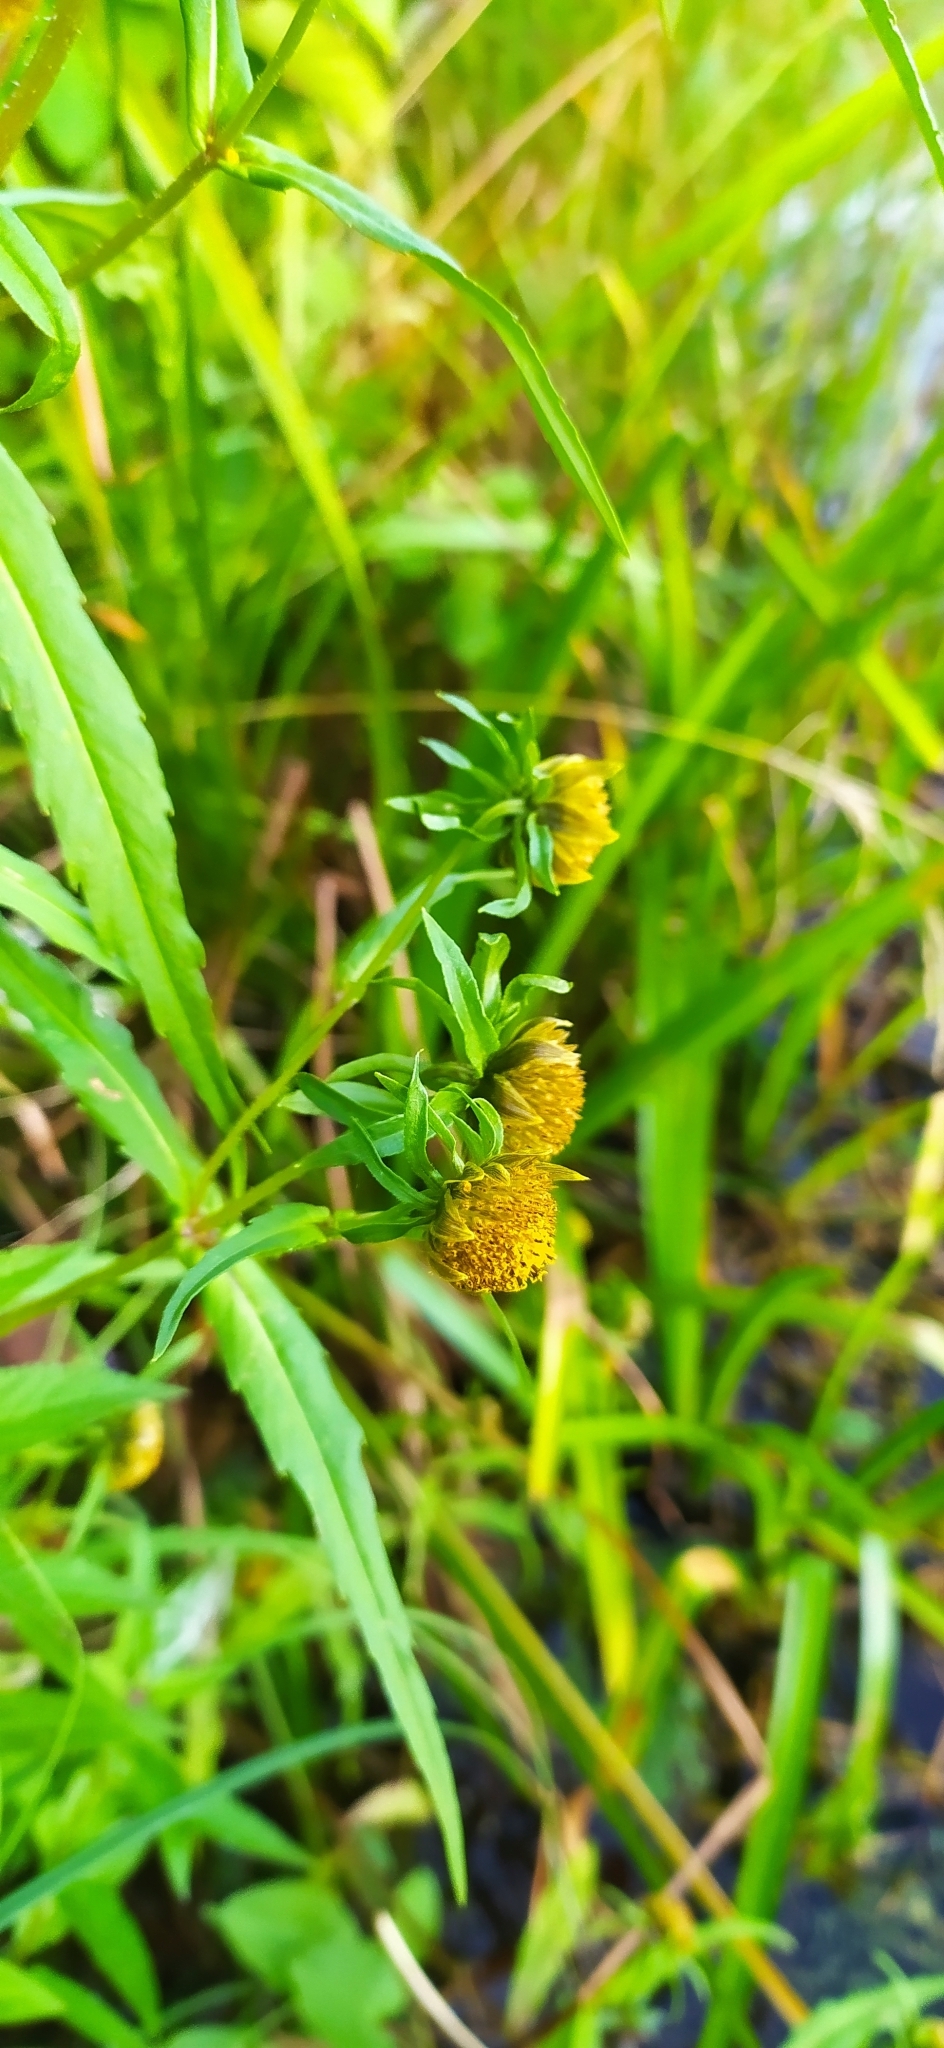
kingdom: Plantae
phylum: Tracheophyta
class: Magnoliopsida
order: Asterales
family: Asteraceae
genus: Bidens
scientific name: Bidens cernua
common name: Nodding bur-marigold
